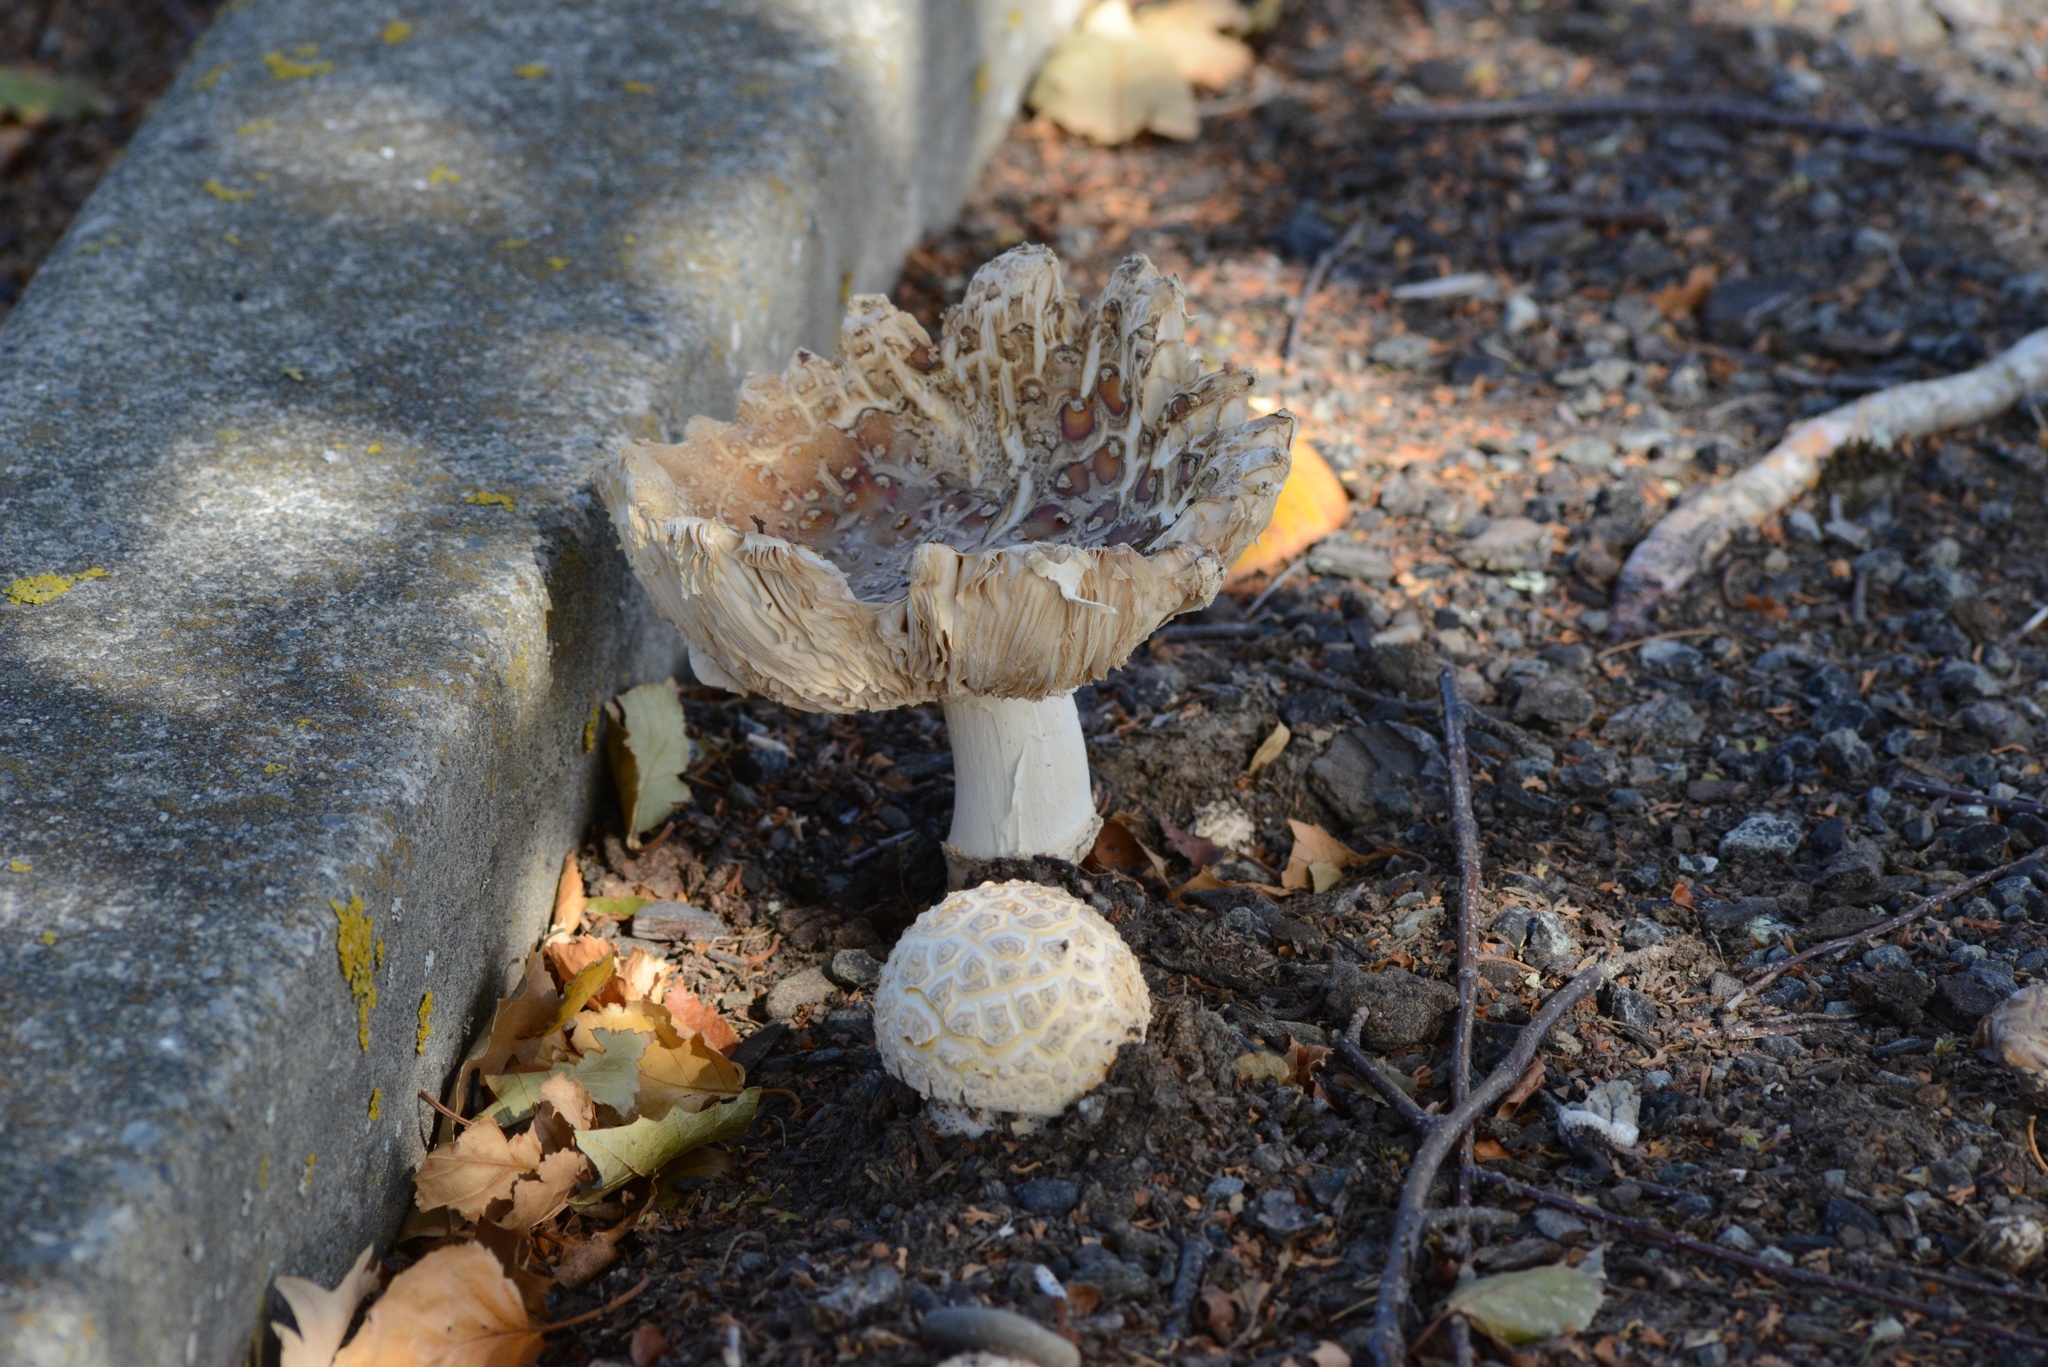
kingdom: Fungi
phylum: Basidiomycota
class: Agaricomycetes
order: Agaricales
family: Amanitaceae
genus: Amanita
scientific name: Amanita muscaria
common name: Fly agaric
